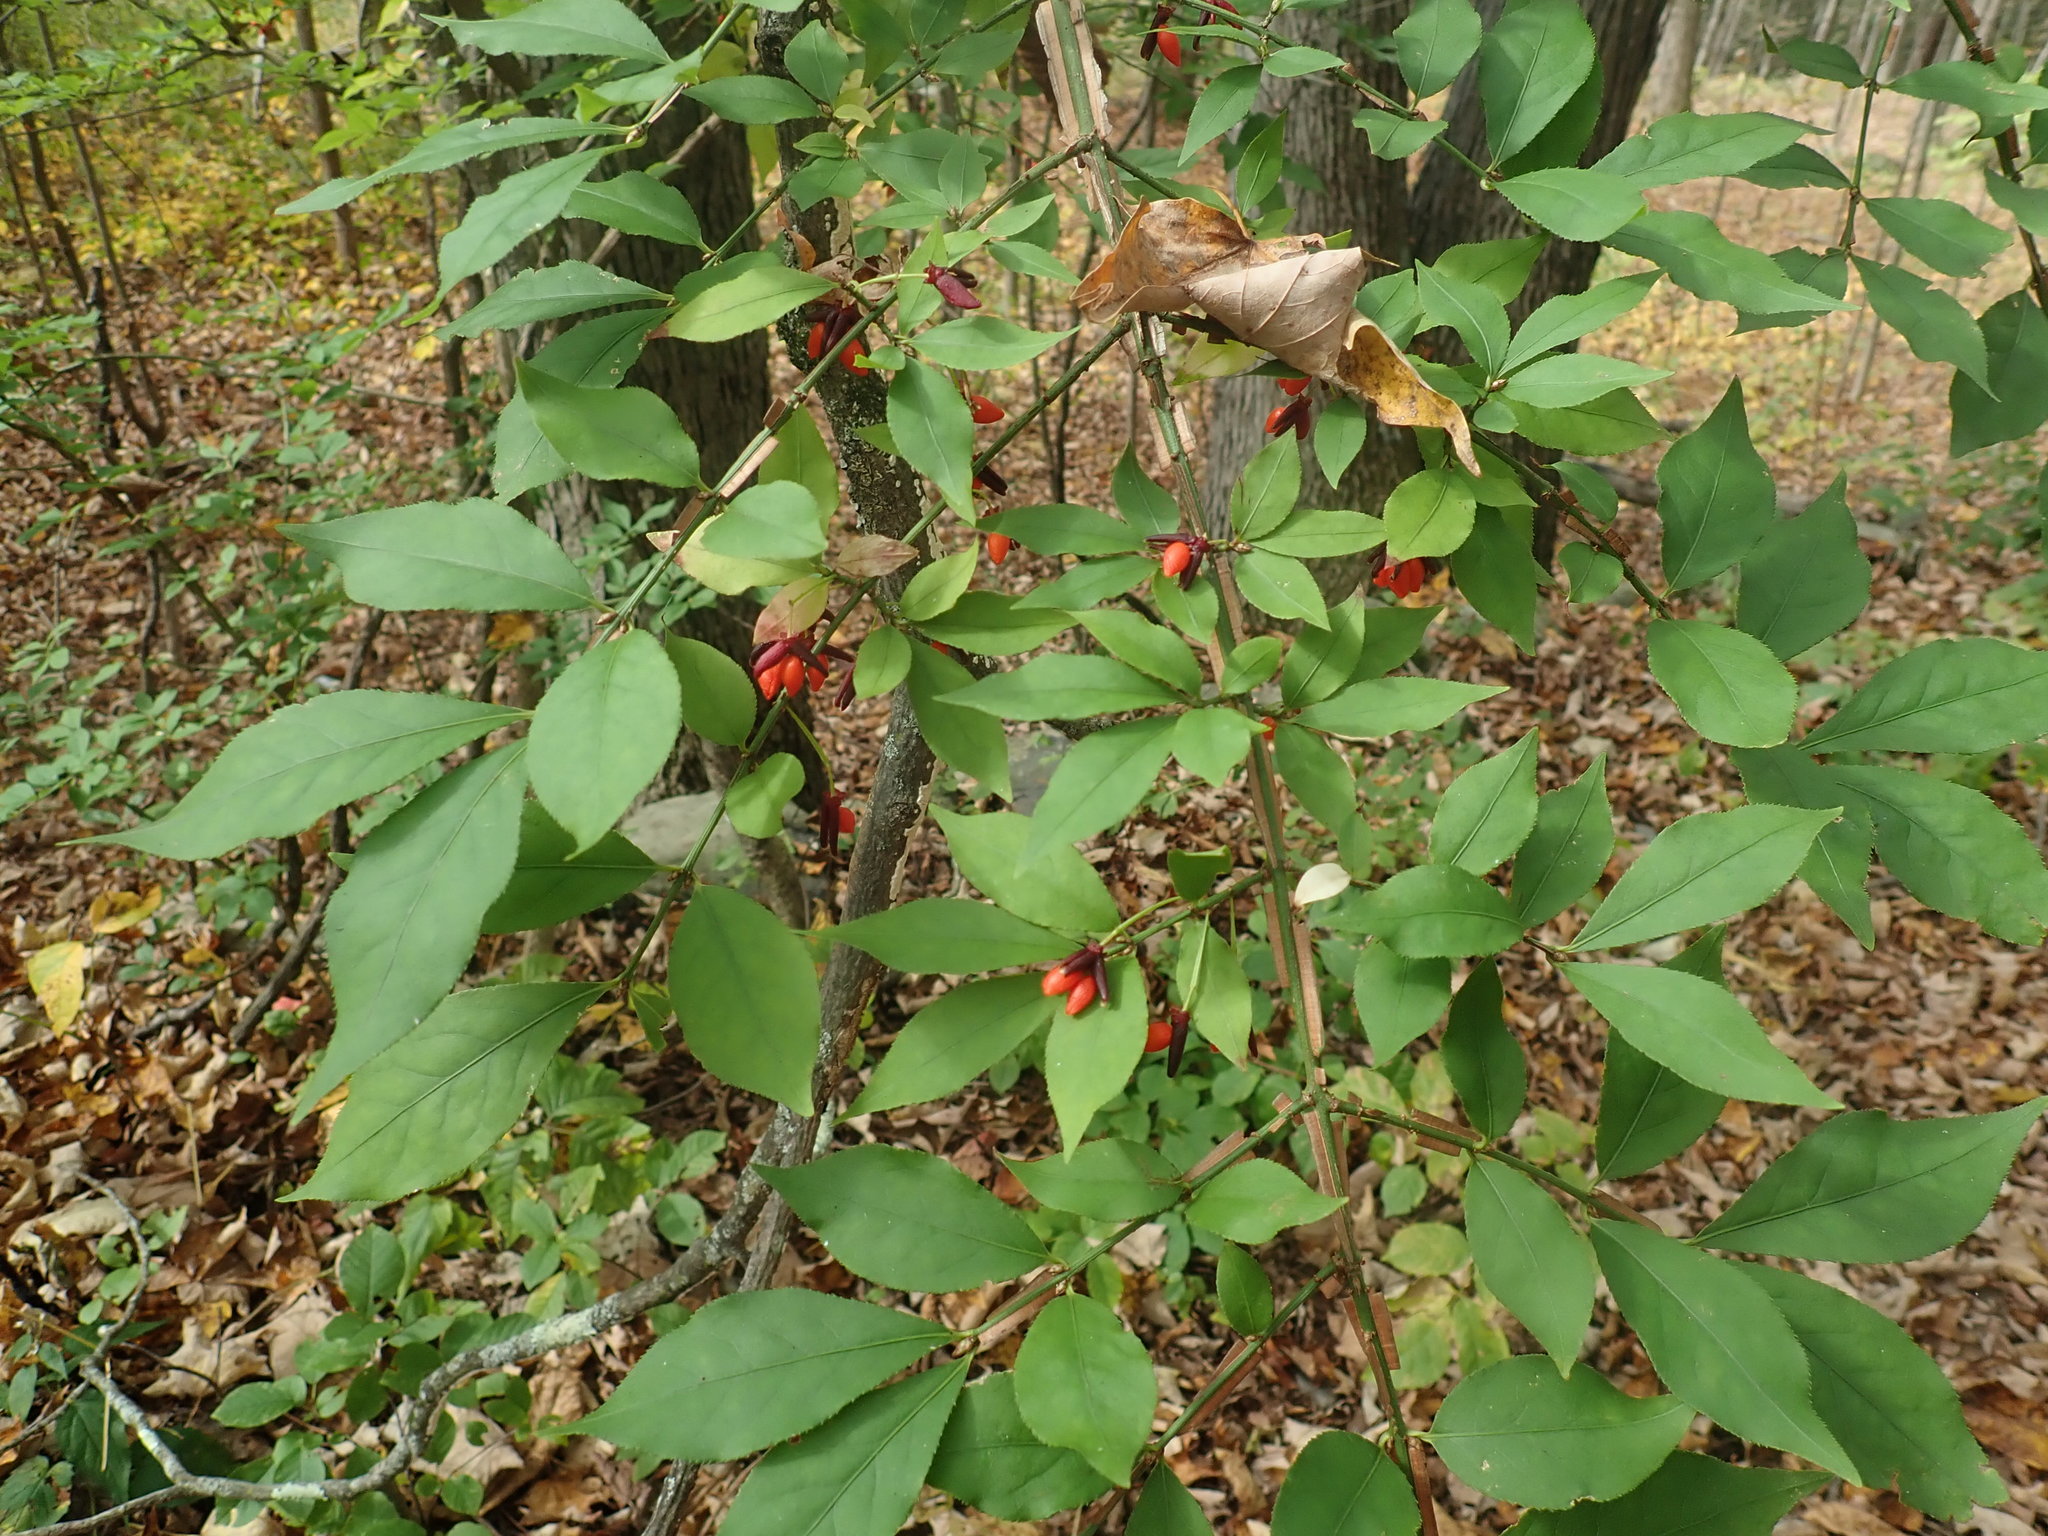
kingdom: Plantae
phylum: Tracheophyta
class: Magnoliopsida
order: Celastrales
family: Celastraceae
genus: Euonymus
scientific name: Euonymus alatus
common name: Winged euonymus
